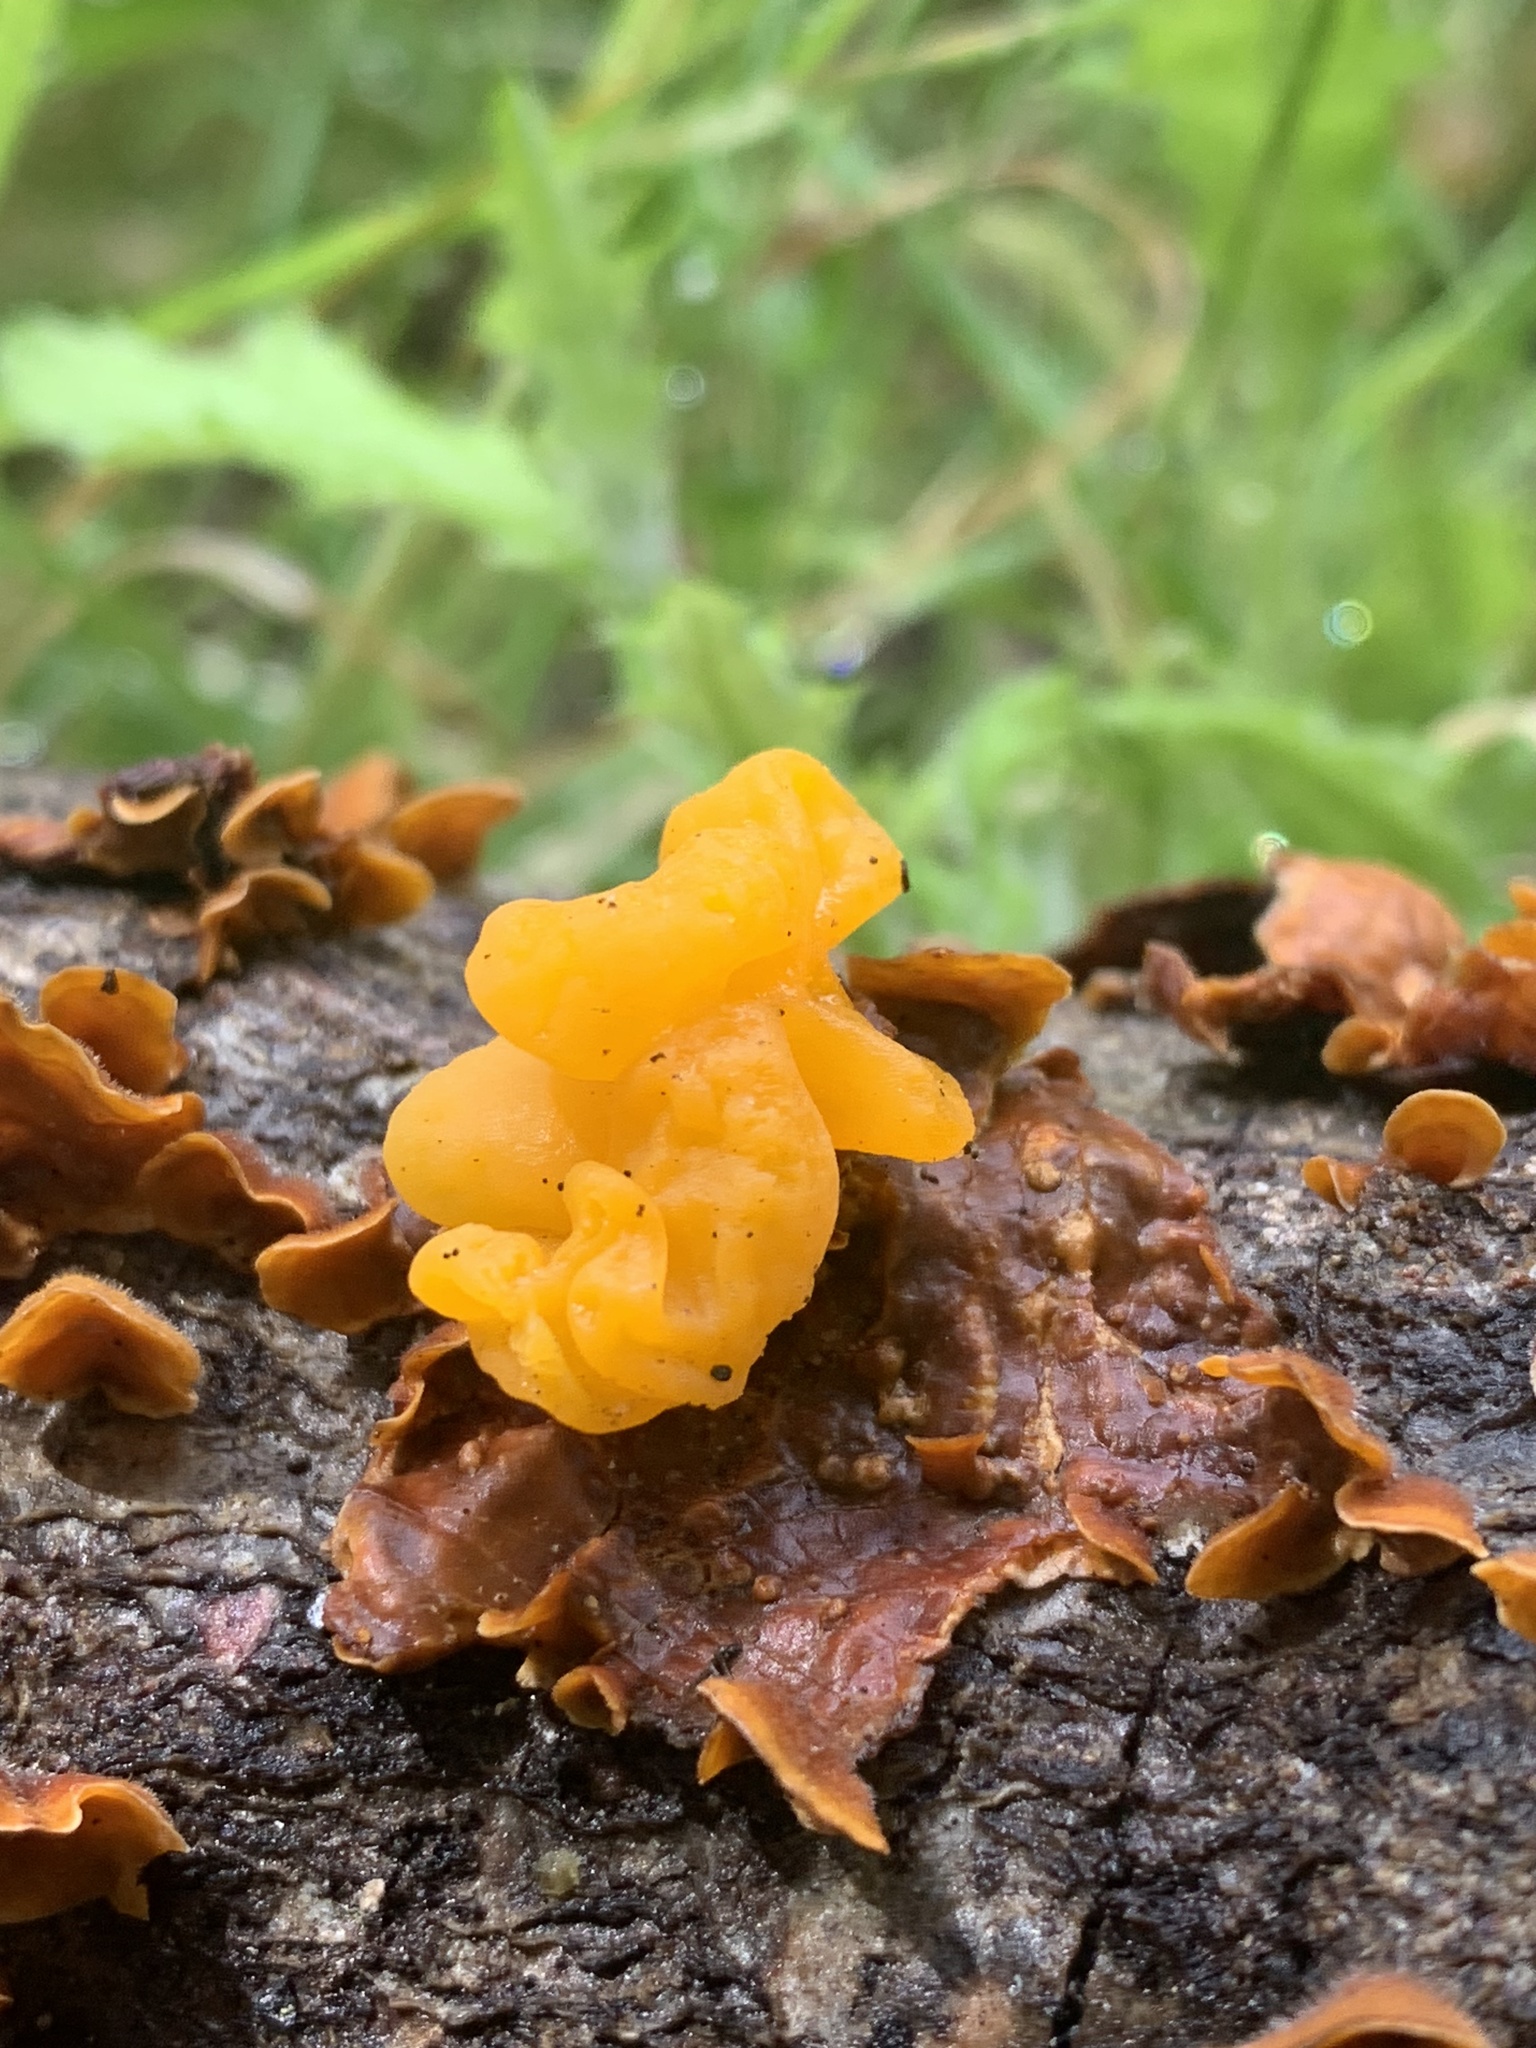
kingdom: Fungi
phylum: Basidiomycota
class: Tremellomycetes
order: Tremellales
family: Naemateliaceae
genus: Naematelia
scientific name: Naematelia aurantia
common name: Golden ear
